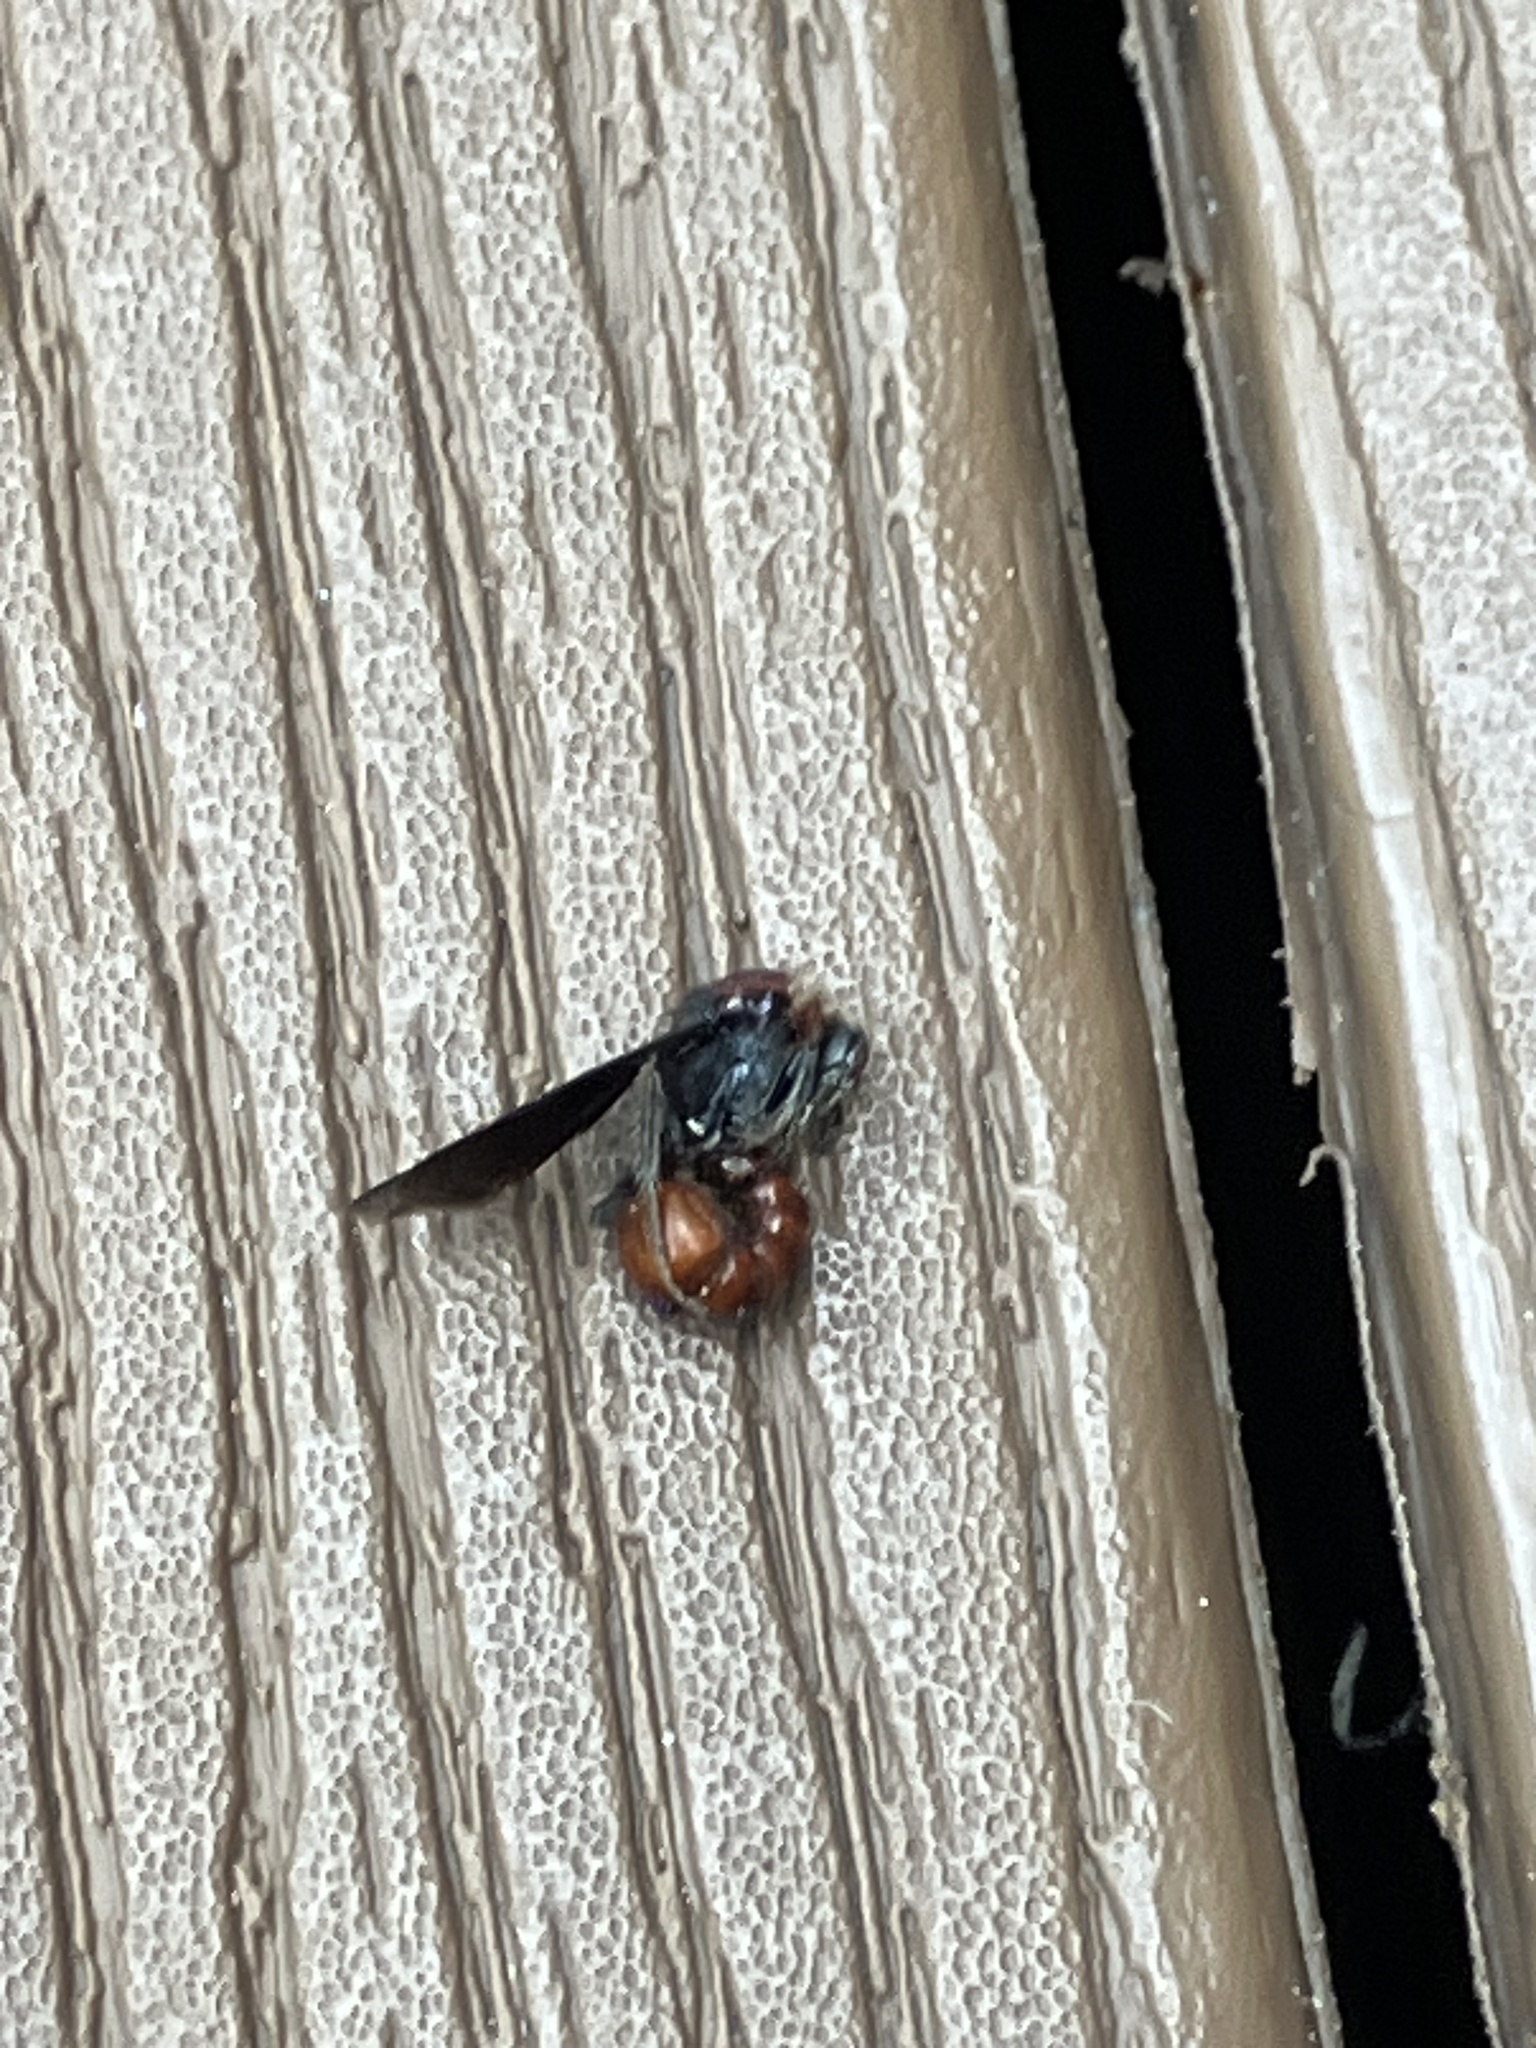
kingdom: Animalia
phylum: Arthropoda
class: Insecta
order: Hymenoptera
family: Mutillidae
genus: Timulla
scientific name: Timulla
